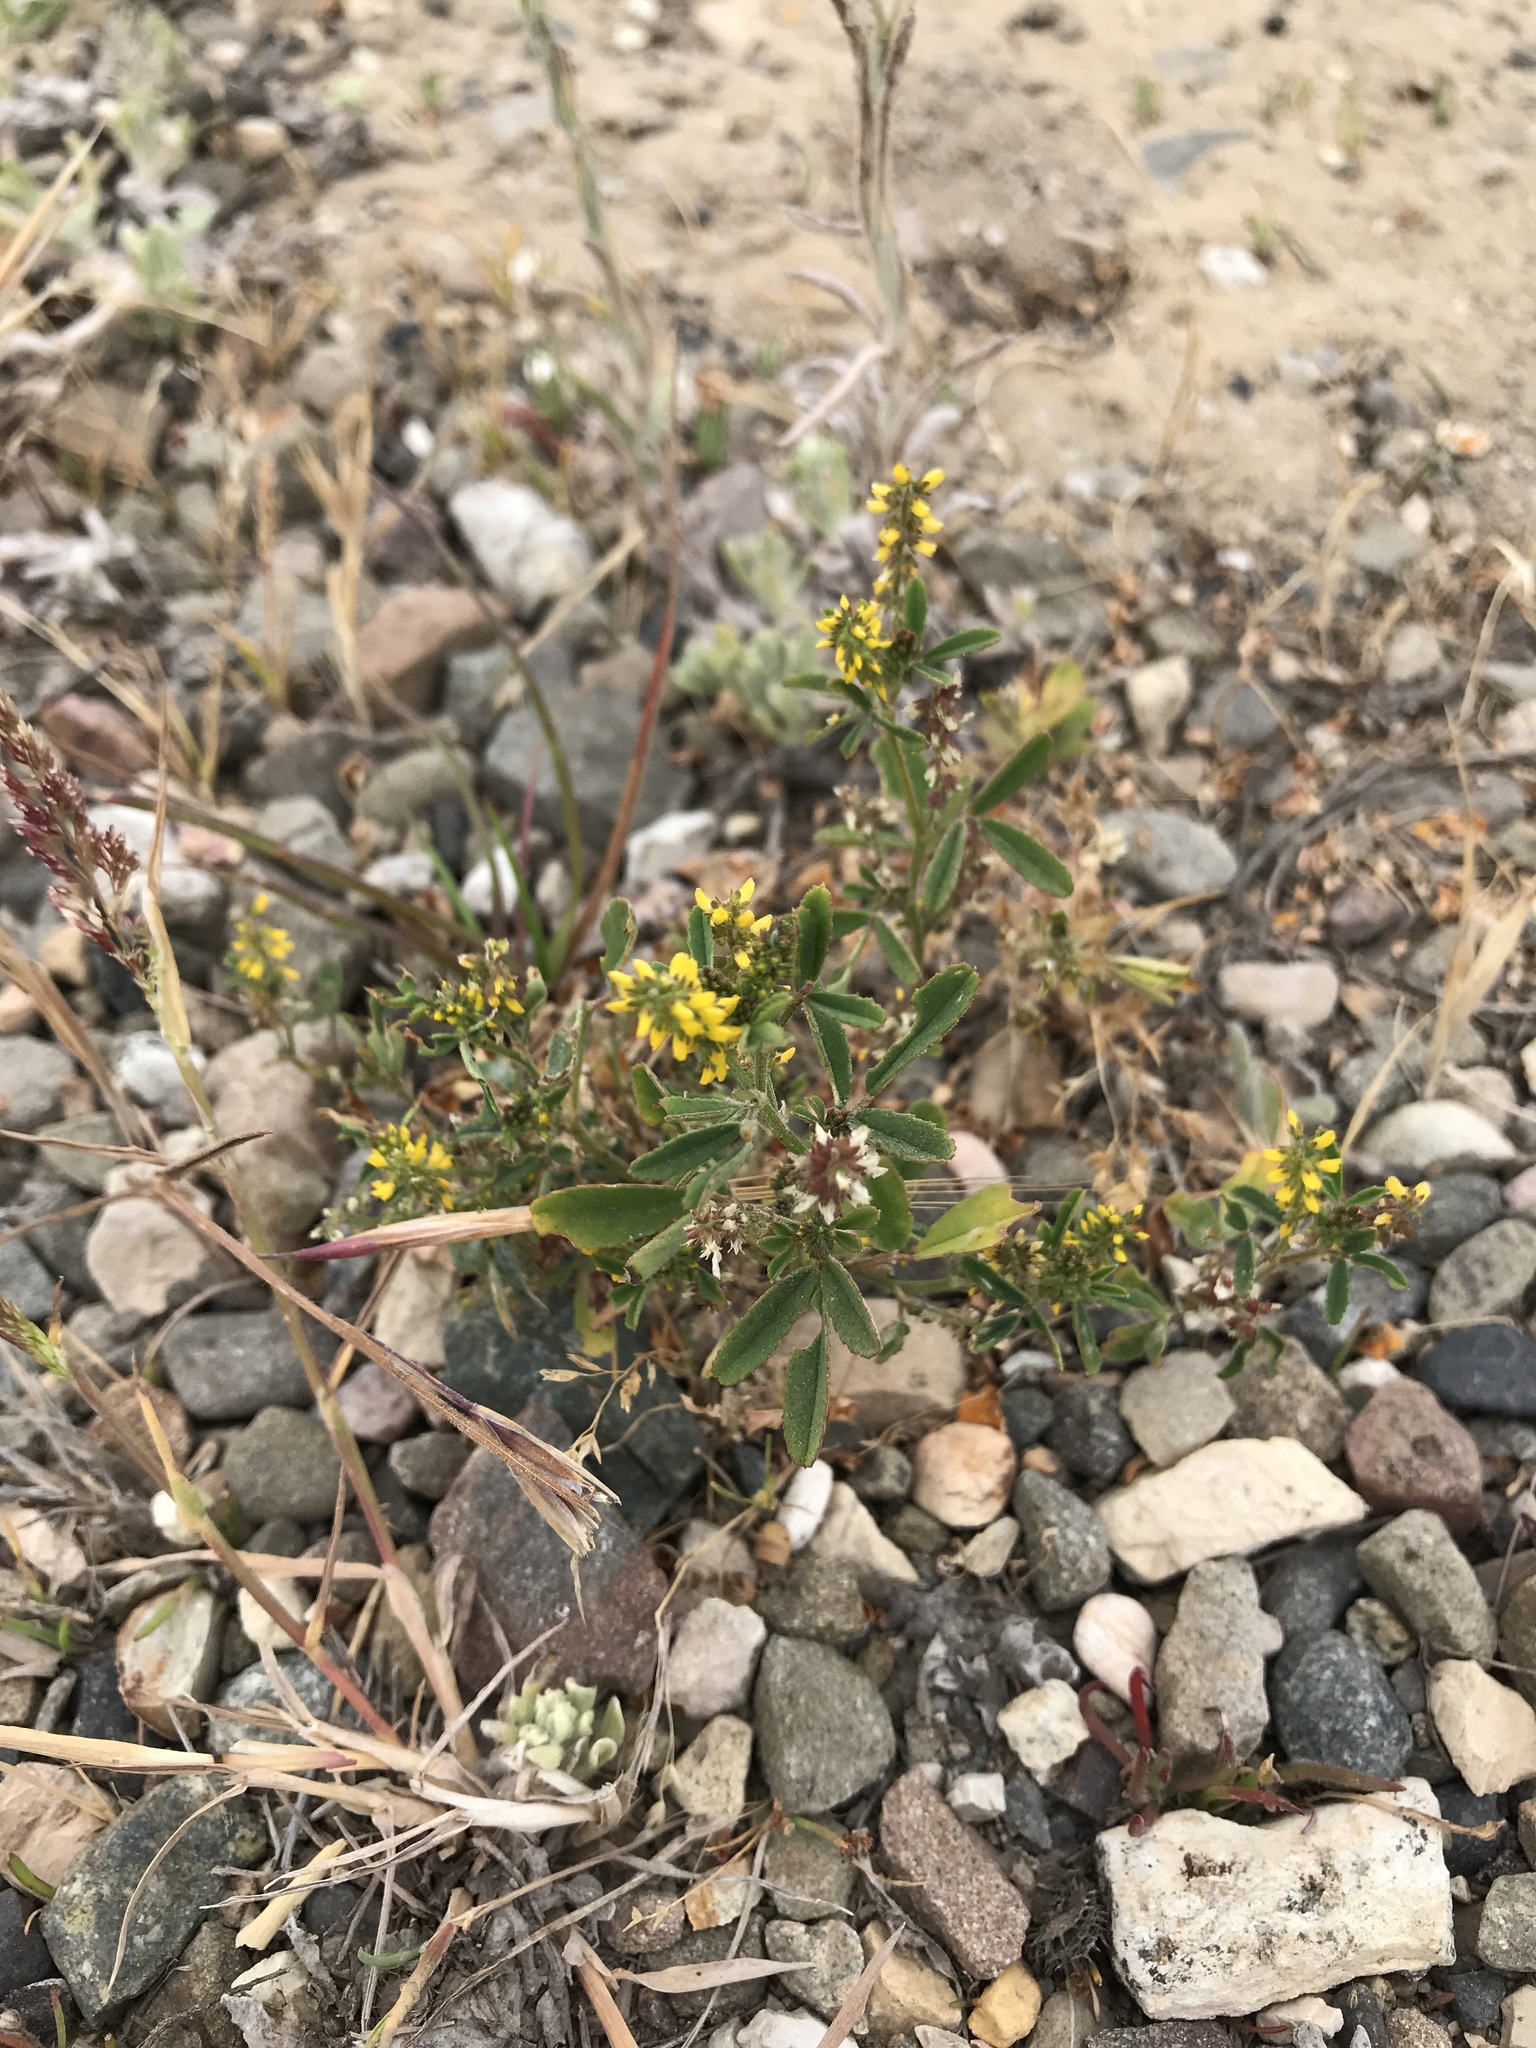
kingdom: Plantae
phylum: Tracheophyta
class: Magnoliopsida
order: Fabales
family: Fabaceae
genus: Melilotus
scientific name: Melilotus indicus
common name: Small melilot
